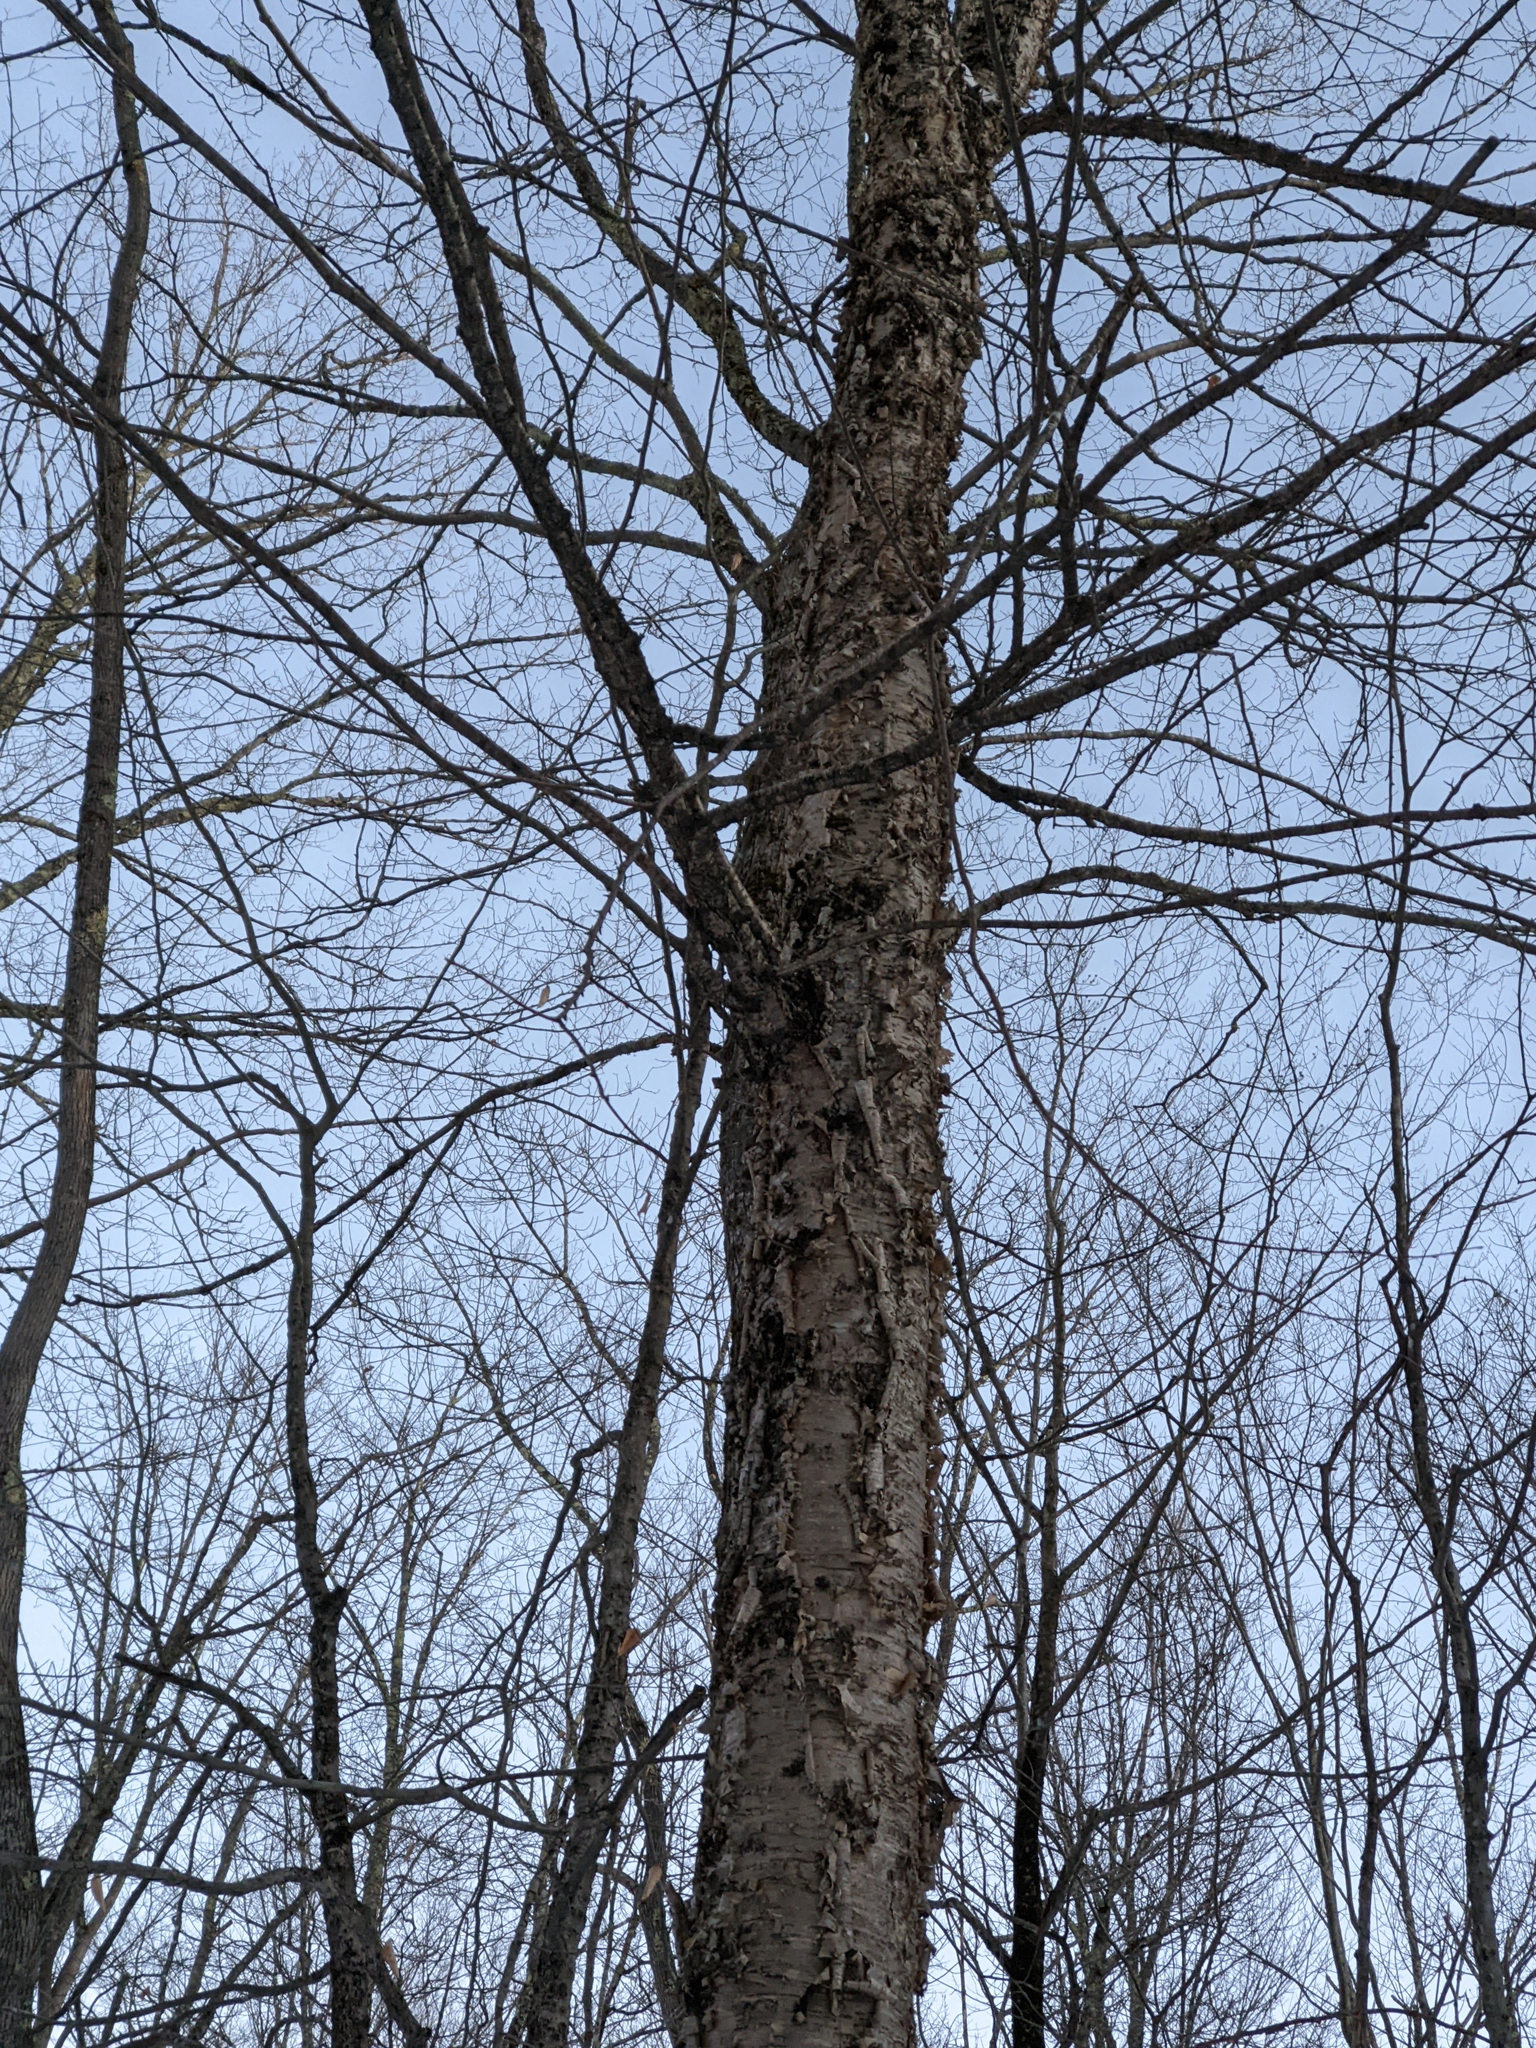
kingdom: Plantae
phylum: Tracheophyta
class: Magnoliopsida
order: Fagales
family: Betulaceae
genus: Betula
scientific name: Betula alleghaniensis
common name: Yellow birch
